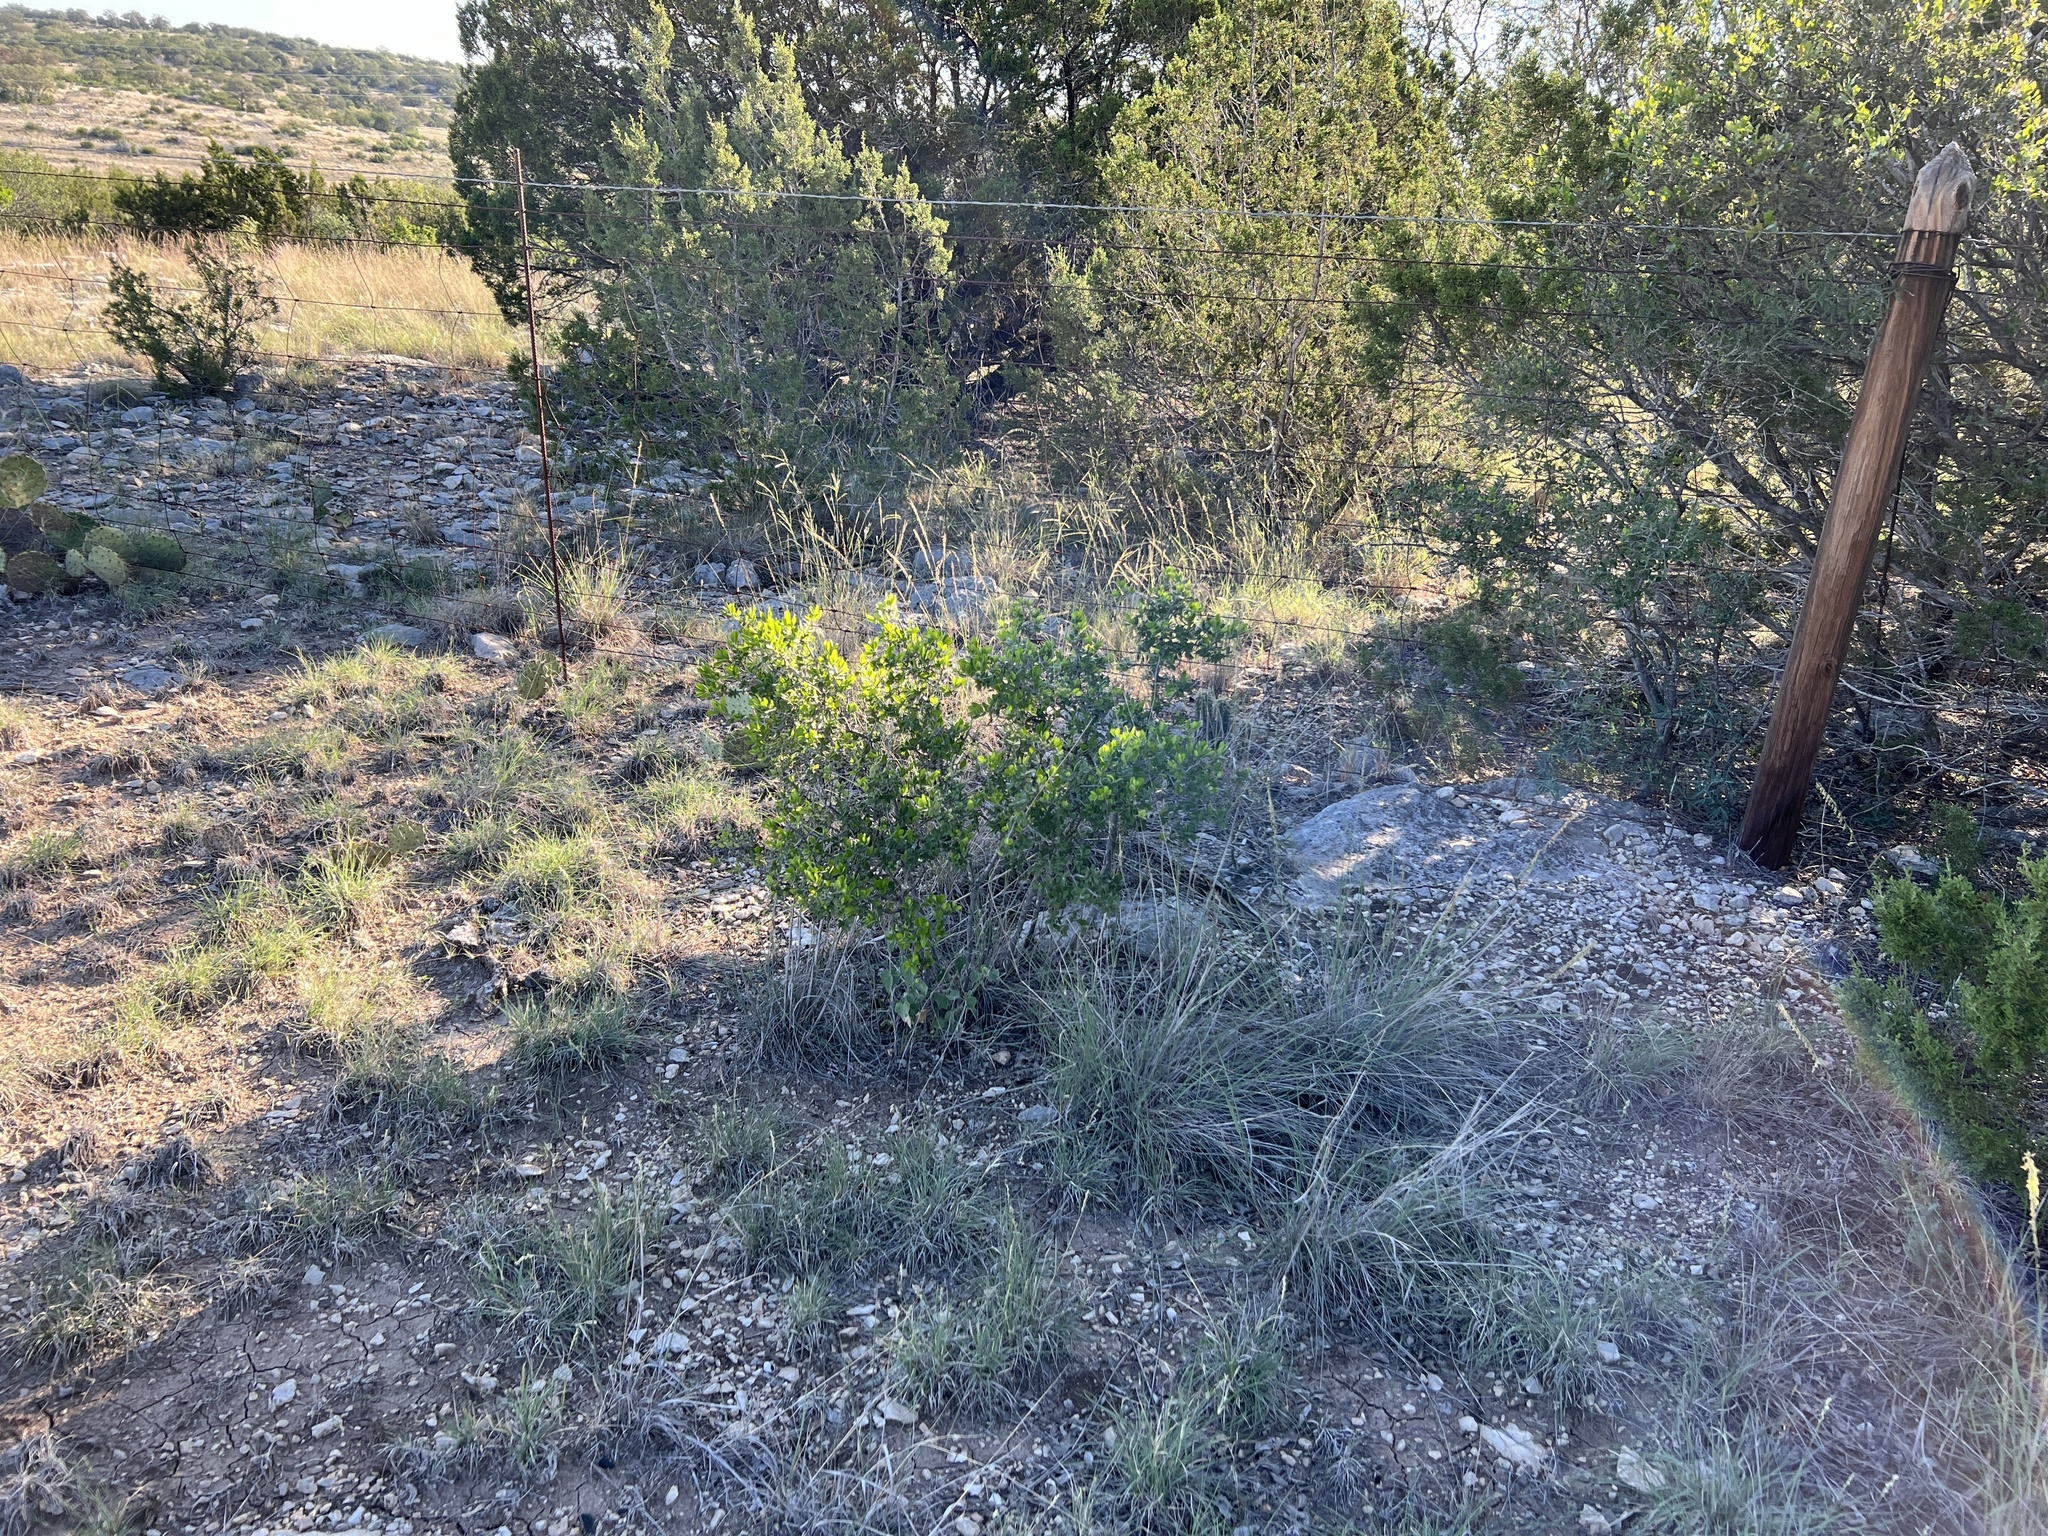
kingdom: Plantae
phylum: Tracheophyta
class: Magnoliopsida
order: Ericales
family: Ebenaceae
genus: Diospyros
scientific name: Diospyros texana
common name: Texas persimmon
